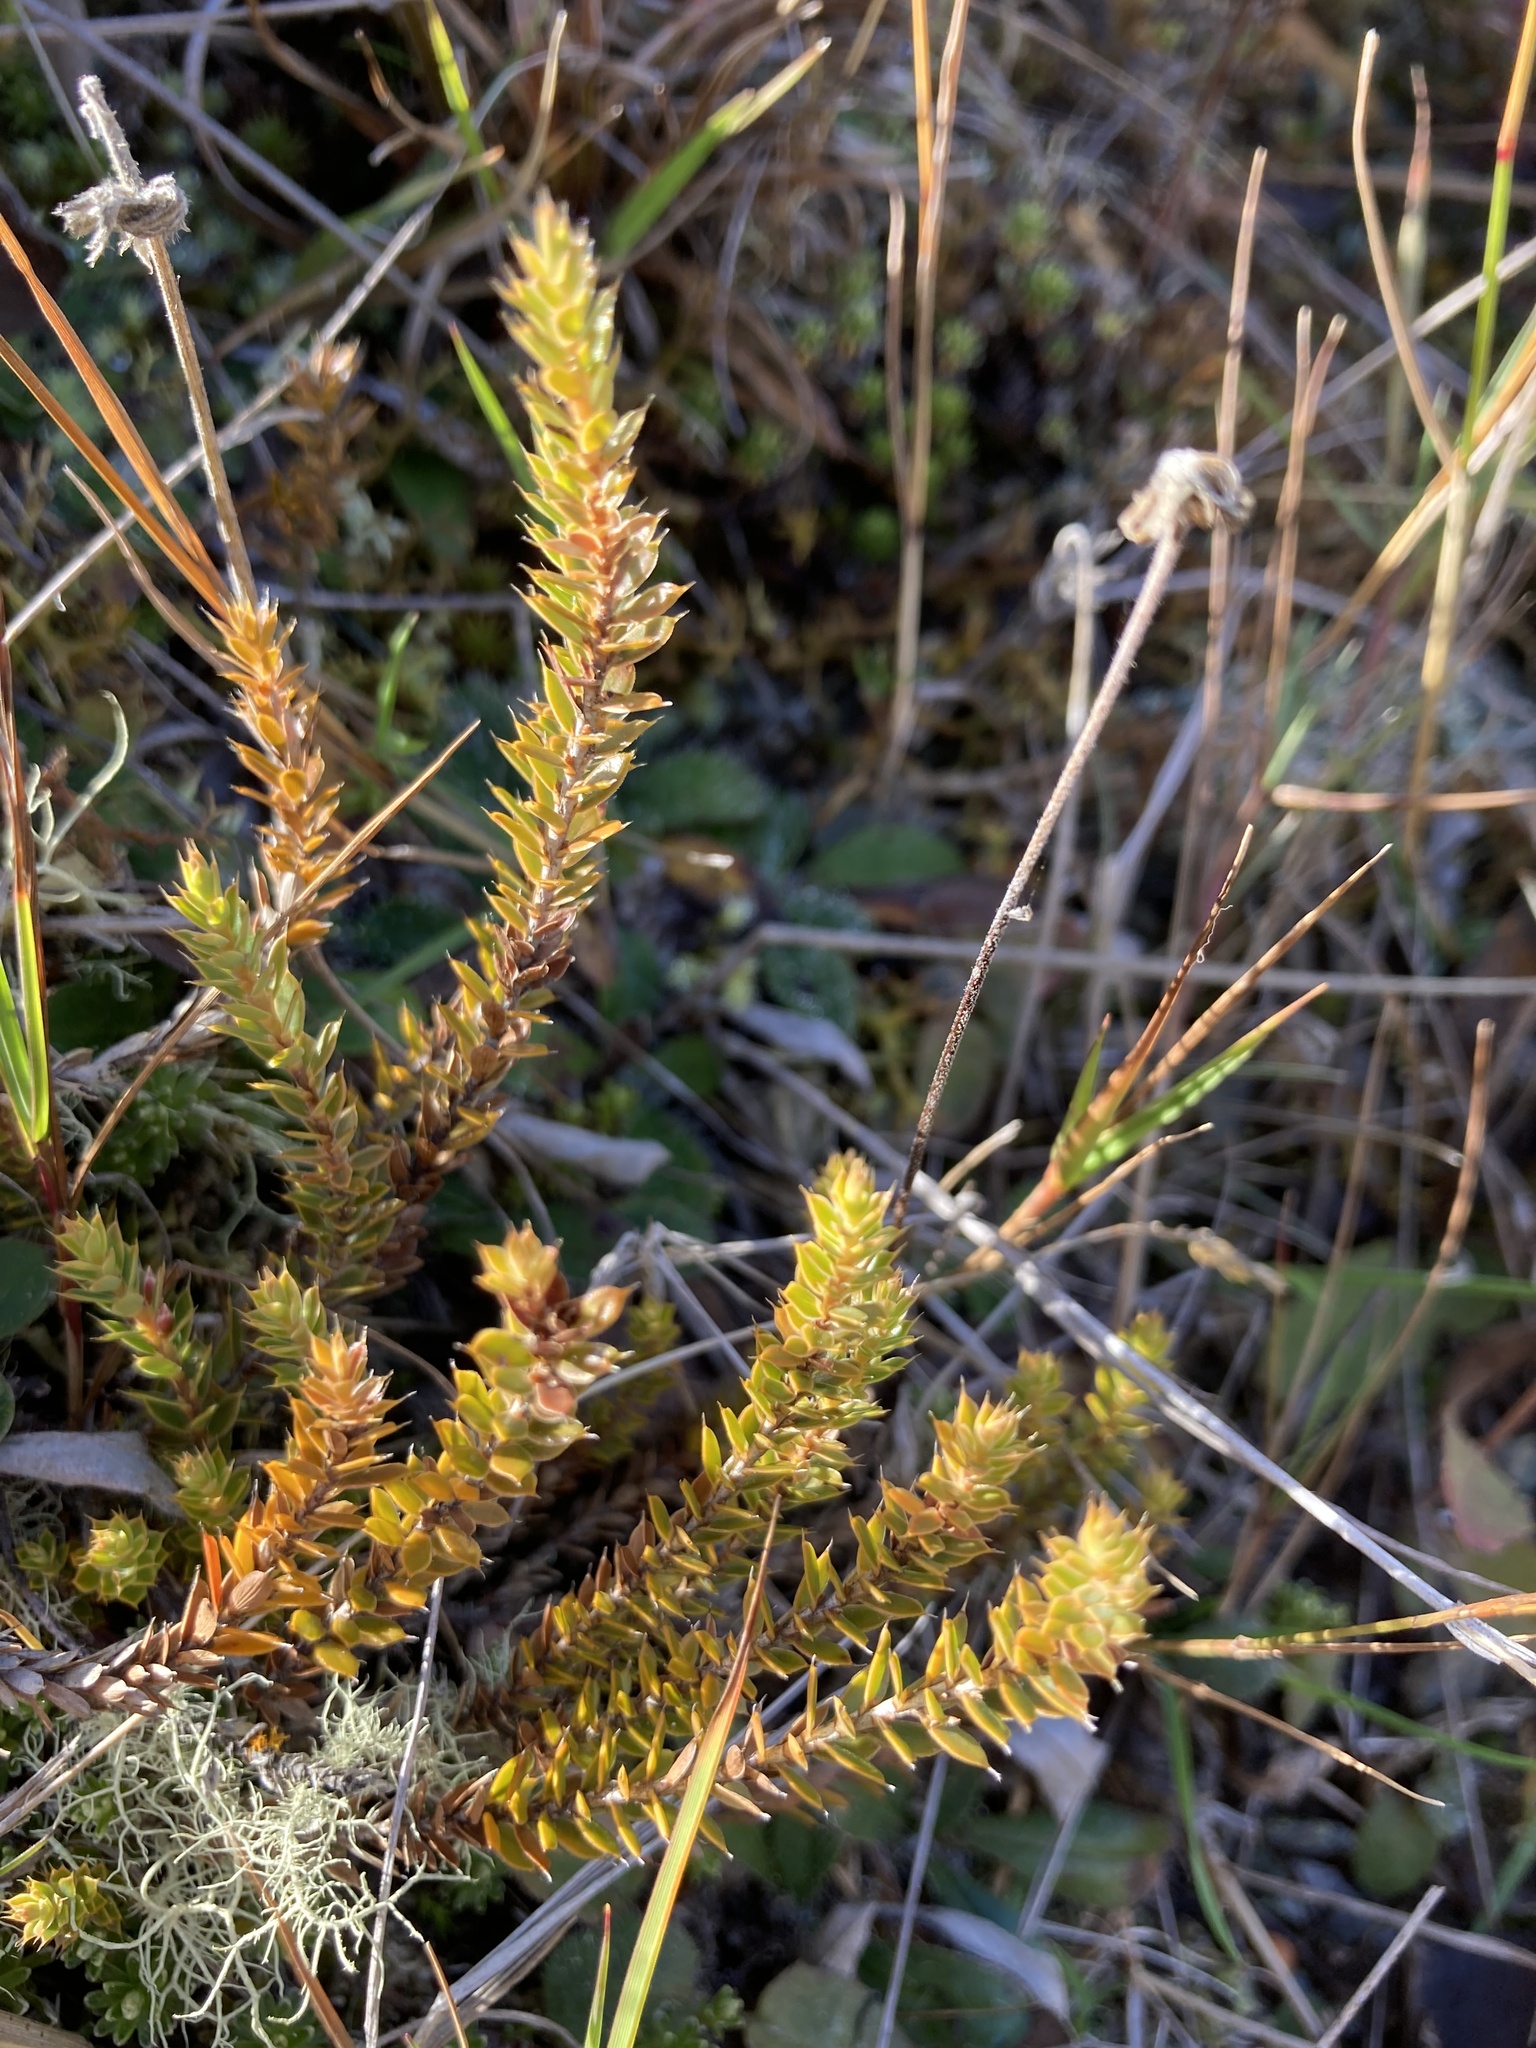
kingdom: Plantae
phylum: Tracheophyta
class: Magnoliopsida
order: Ericales
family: Ericaceae
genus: Styphelia
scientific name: Styphelia nesophila
